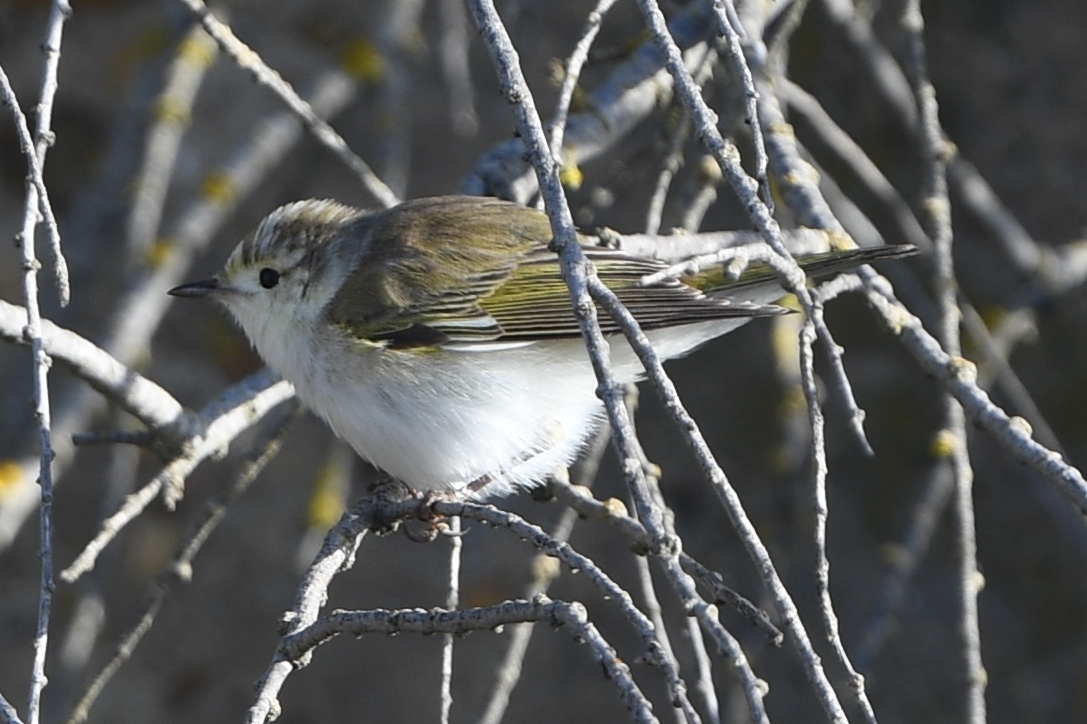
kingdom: Animalia
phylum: Chordata
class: Aves
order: Passeriformes
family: Phylloscopidae
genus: Phylloscopus
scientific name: Phylloscopus bonelli
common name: Western bonelli's warbler
